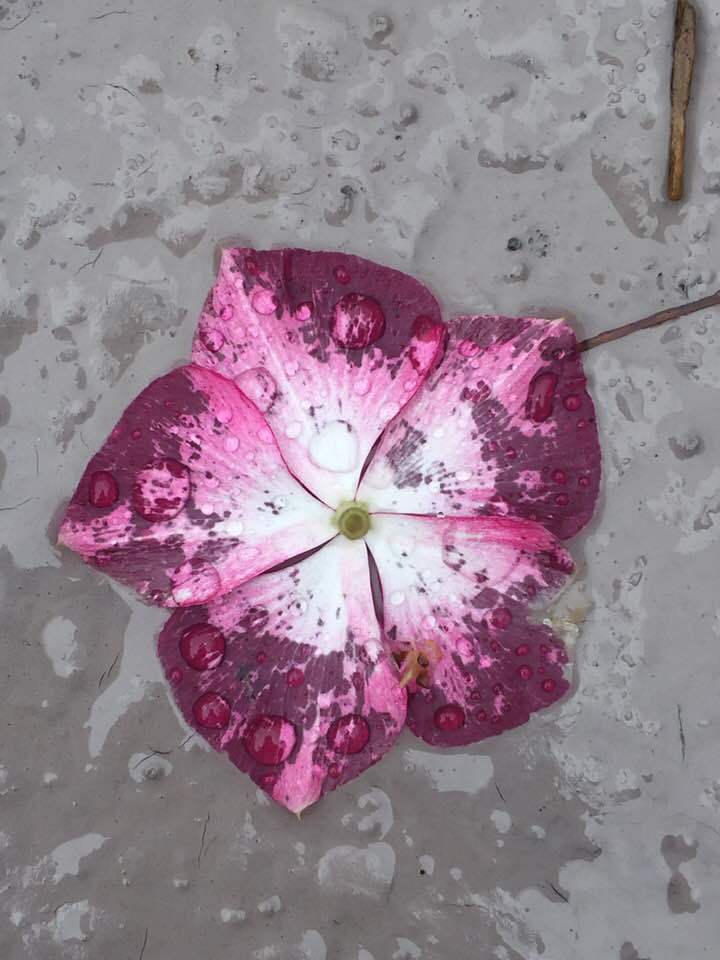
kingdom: Plantae
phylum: Tracheophyta
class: Magnoliopsida
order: Gentianales
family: Apocynaceae
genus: Catharanthus
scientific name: Catharanthus roseus
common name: Madagascar periwinkle
